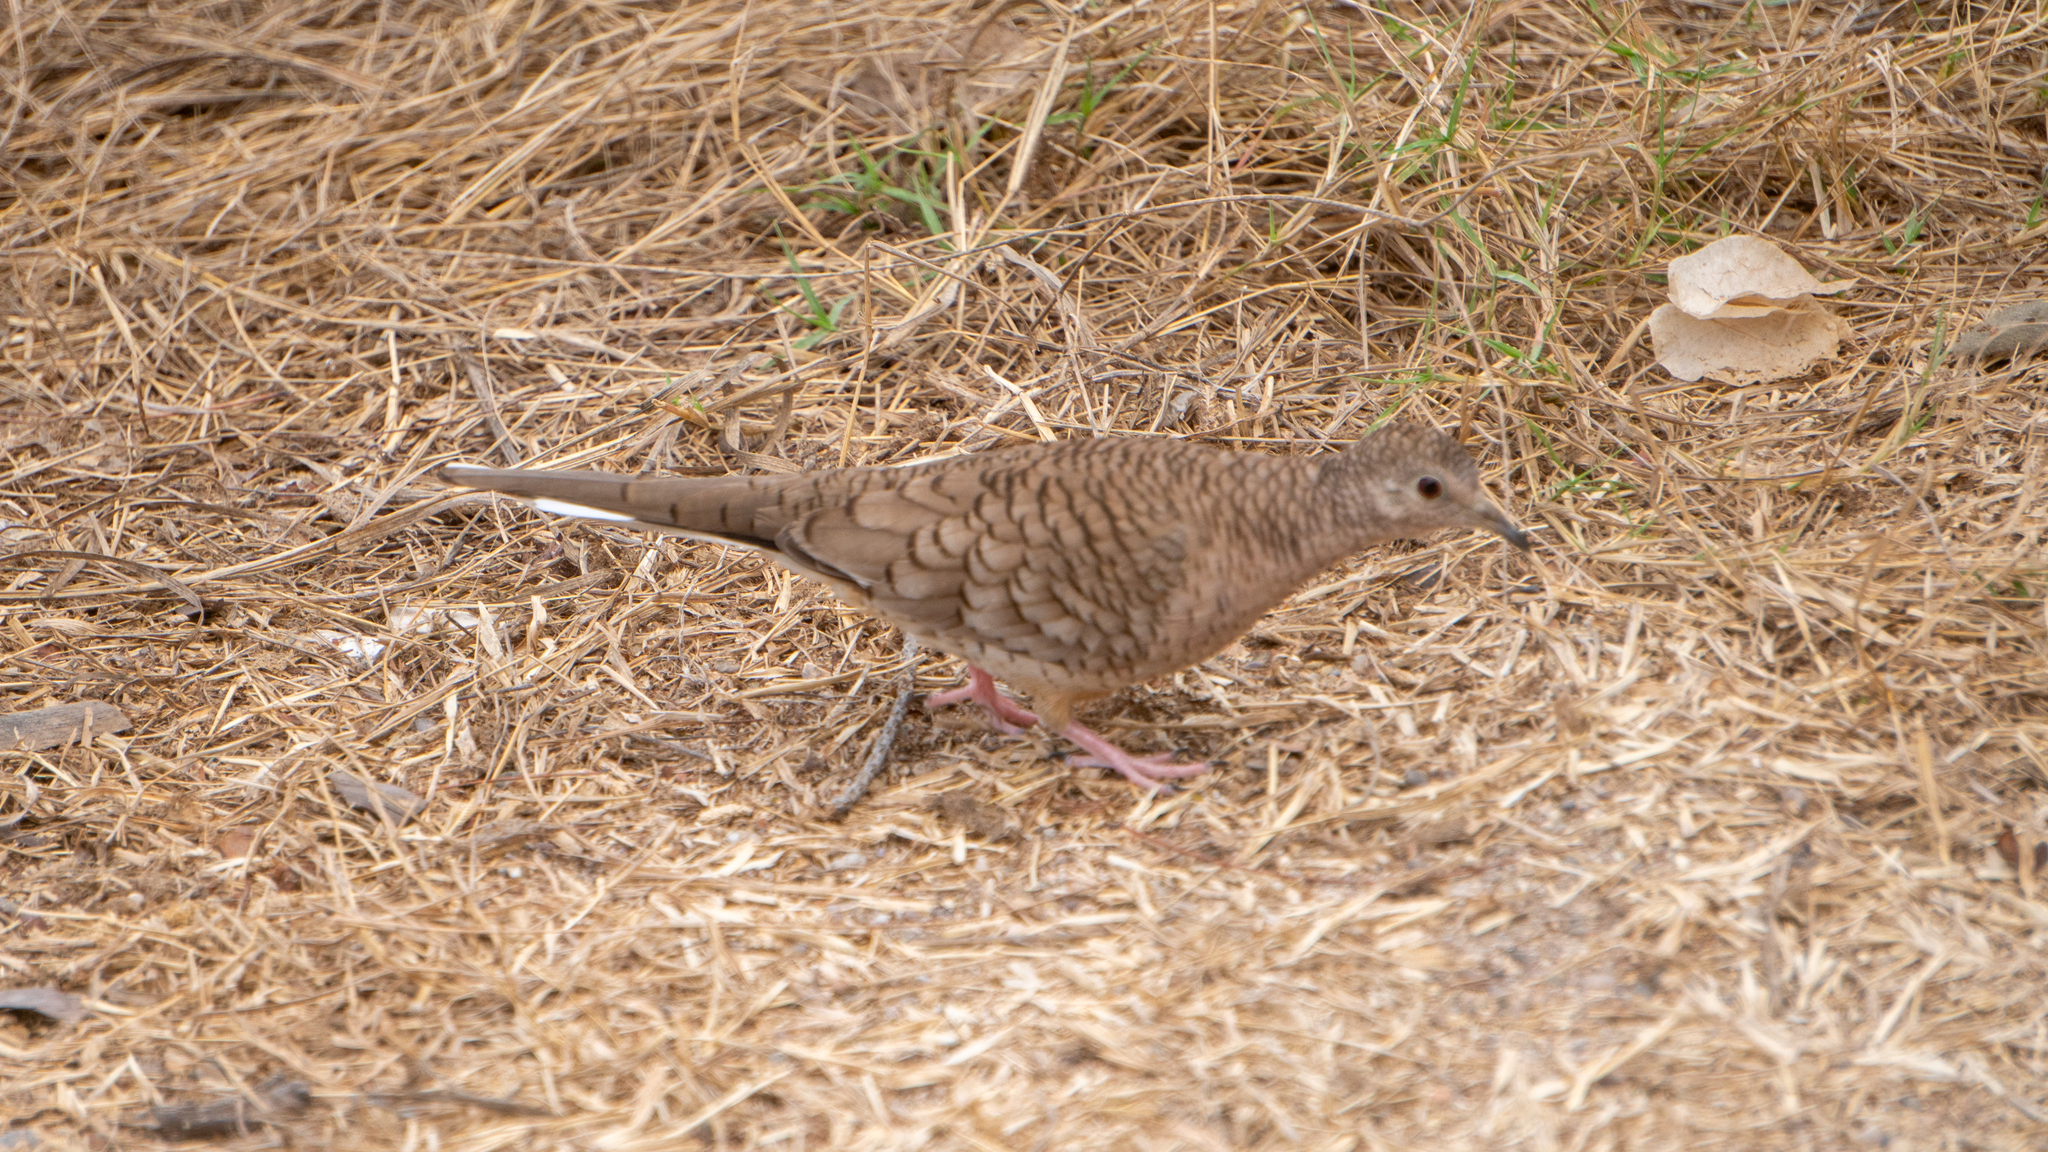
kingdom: Animalia
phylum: Chordata
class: Aves
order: Columbiformes
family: Columbidae
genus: Columbina
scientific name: Columbina inca
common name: Inca dove
